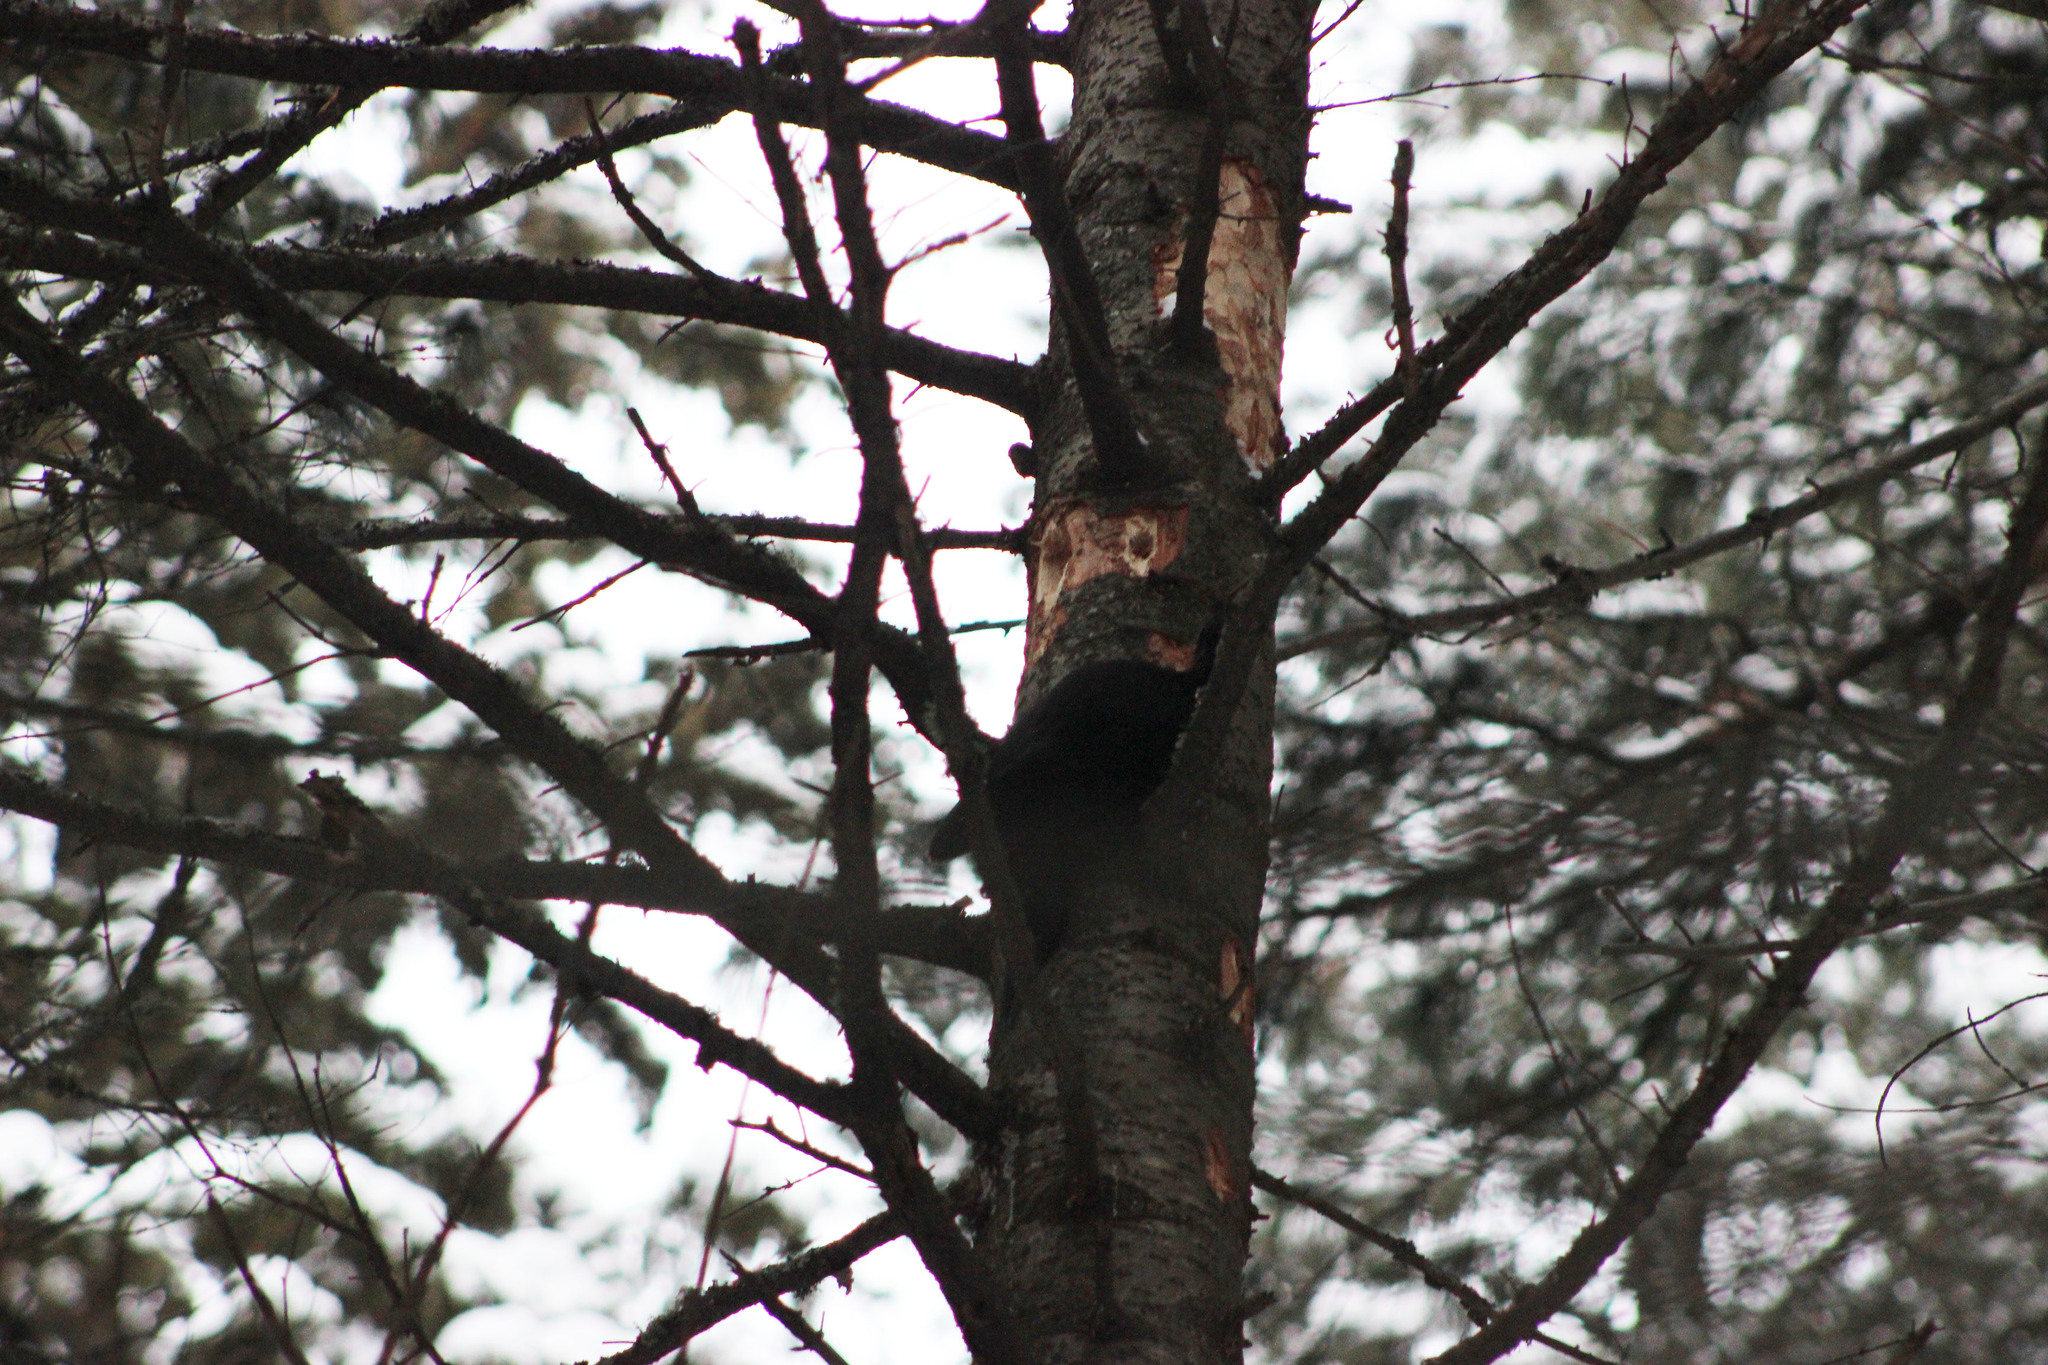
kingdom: Animalia
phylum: Chordata
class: Aves
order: Piciformes
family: Picidae
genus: Dryocopus
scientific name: Dryocopus martius
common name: Black woodpecker
